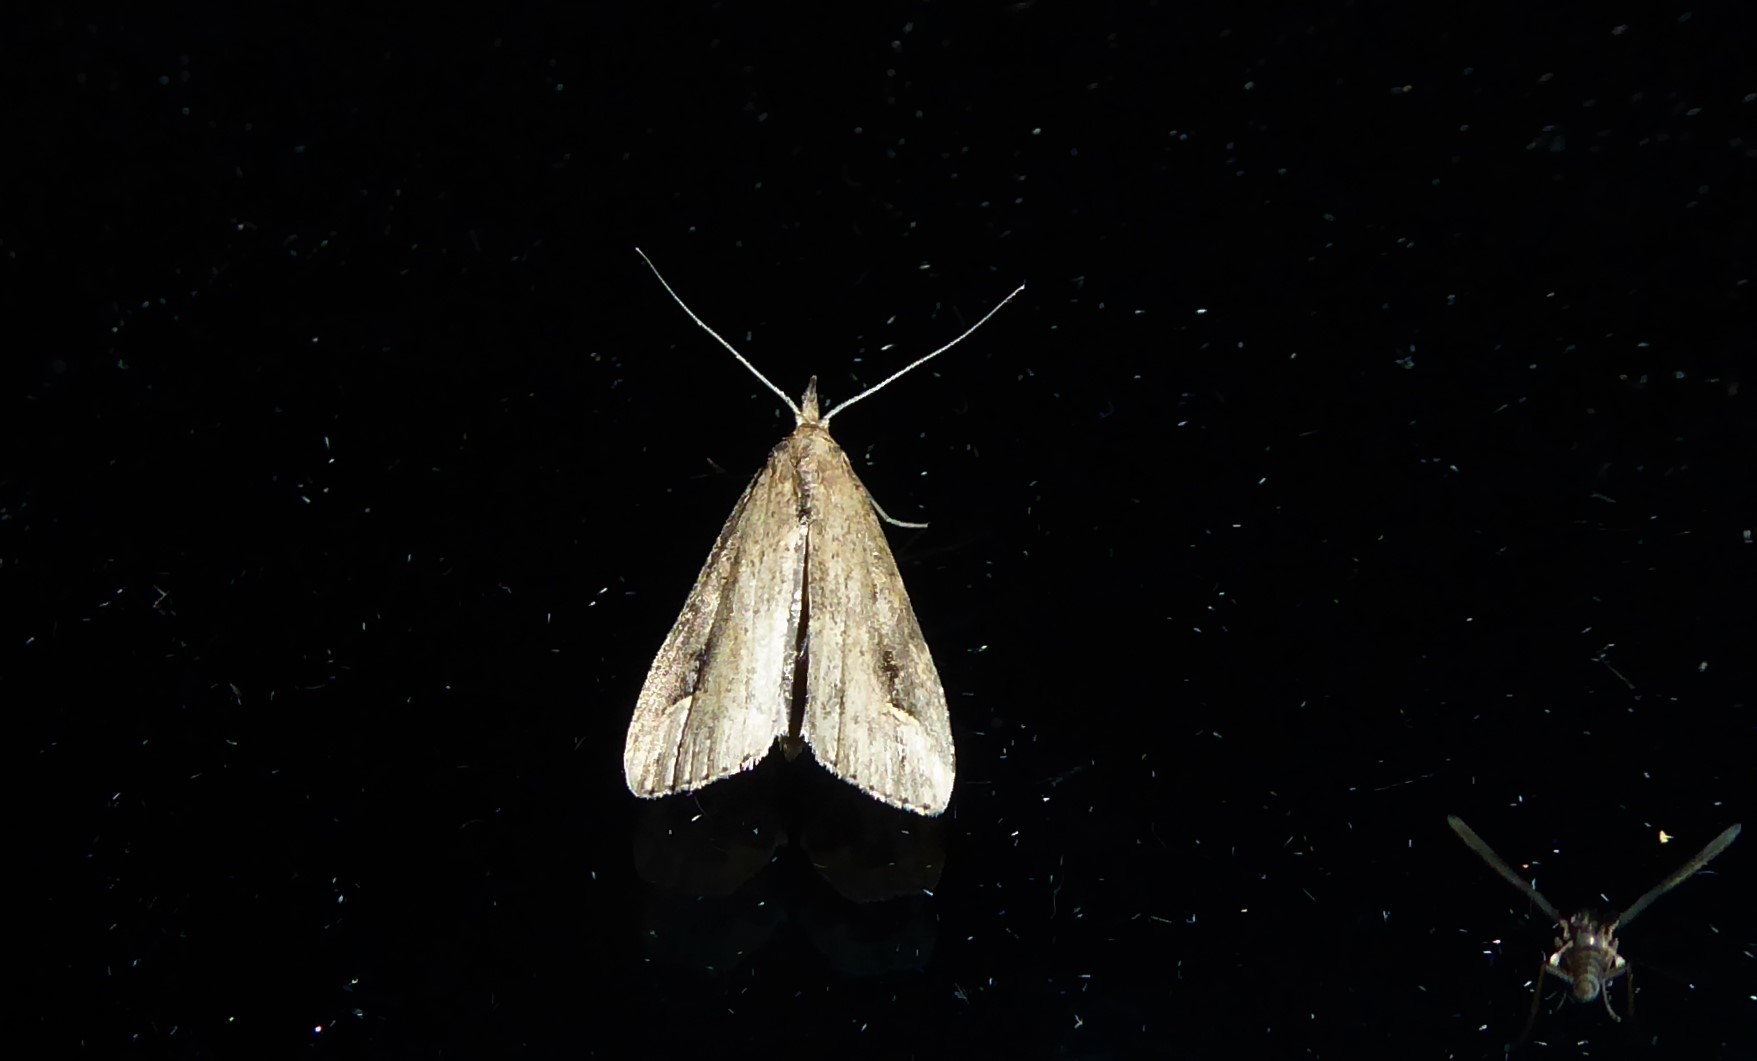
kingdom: Animalia
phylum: Arthropoda
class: Insecta
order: Lepidoptera
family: Erebidae
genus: Schrankia
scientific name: Schrankia costaestrigalis
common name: Pinion-streaked snout
